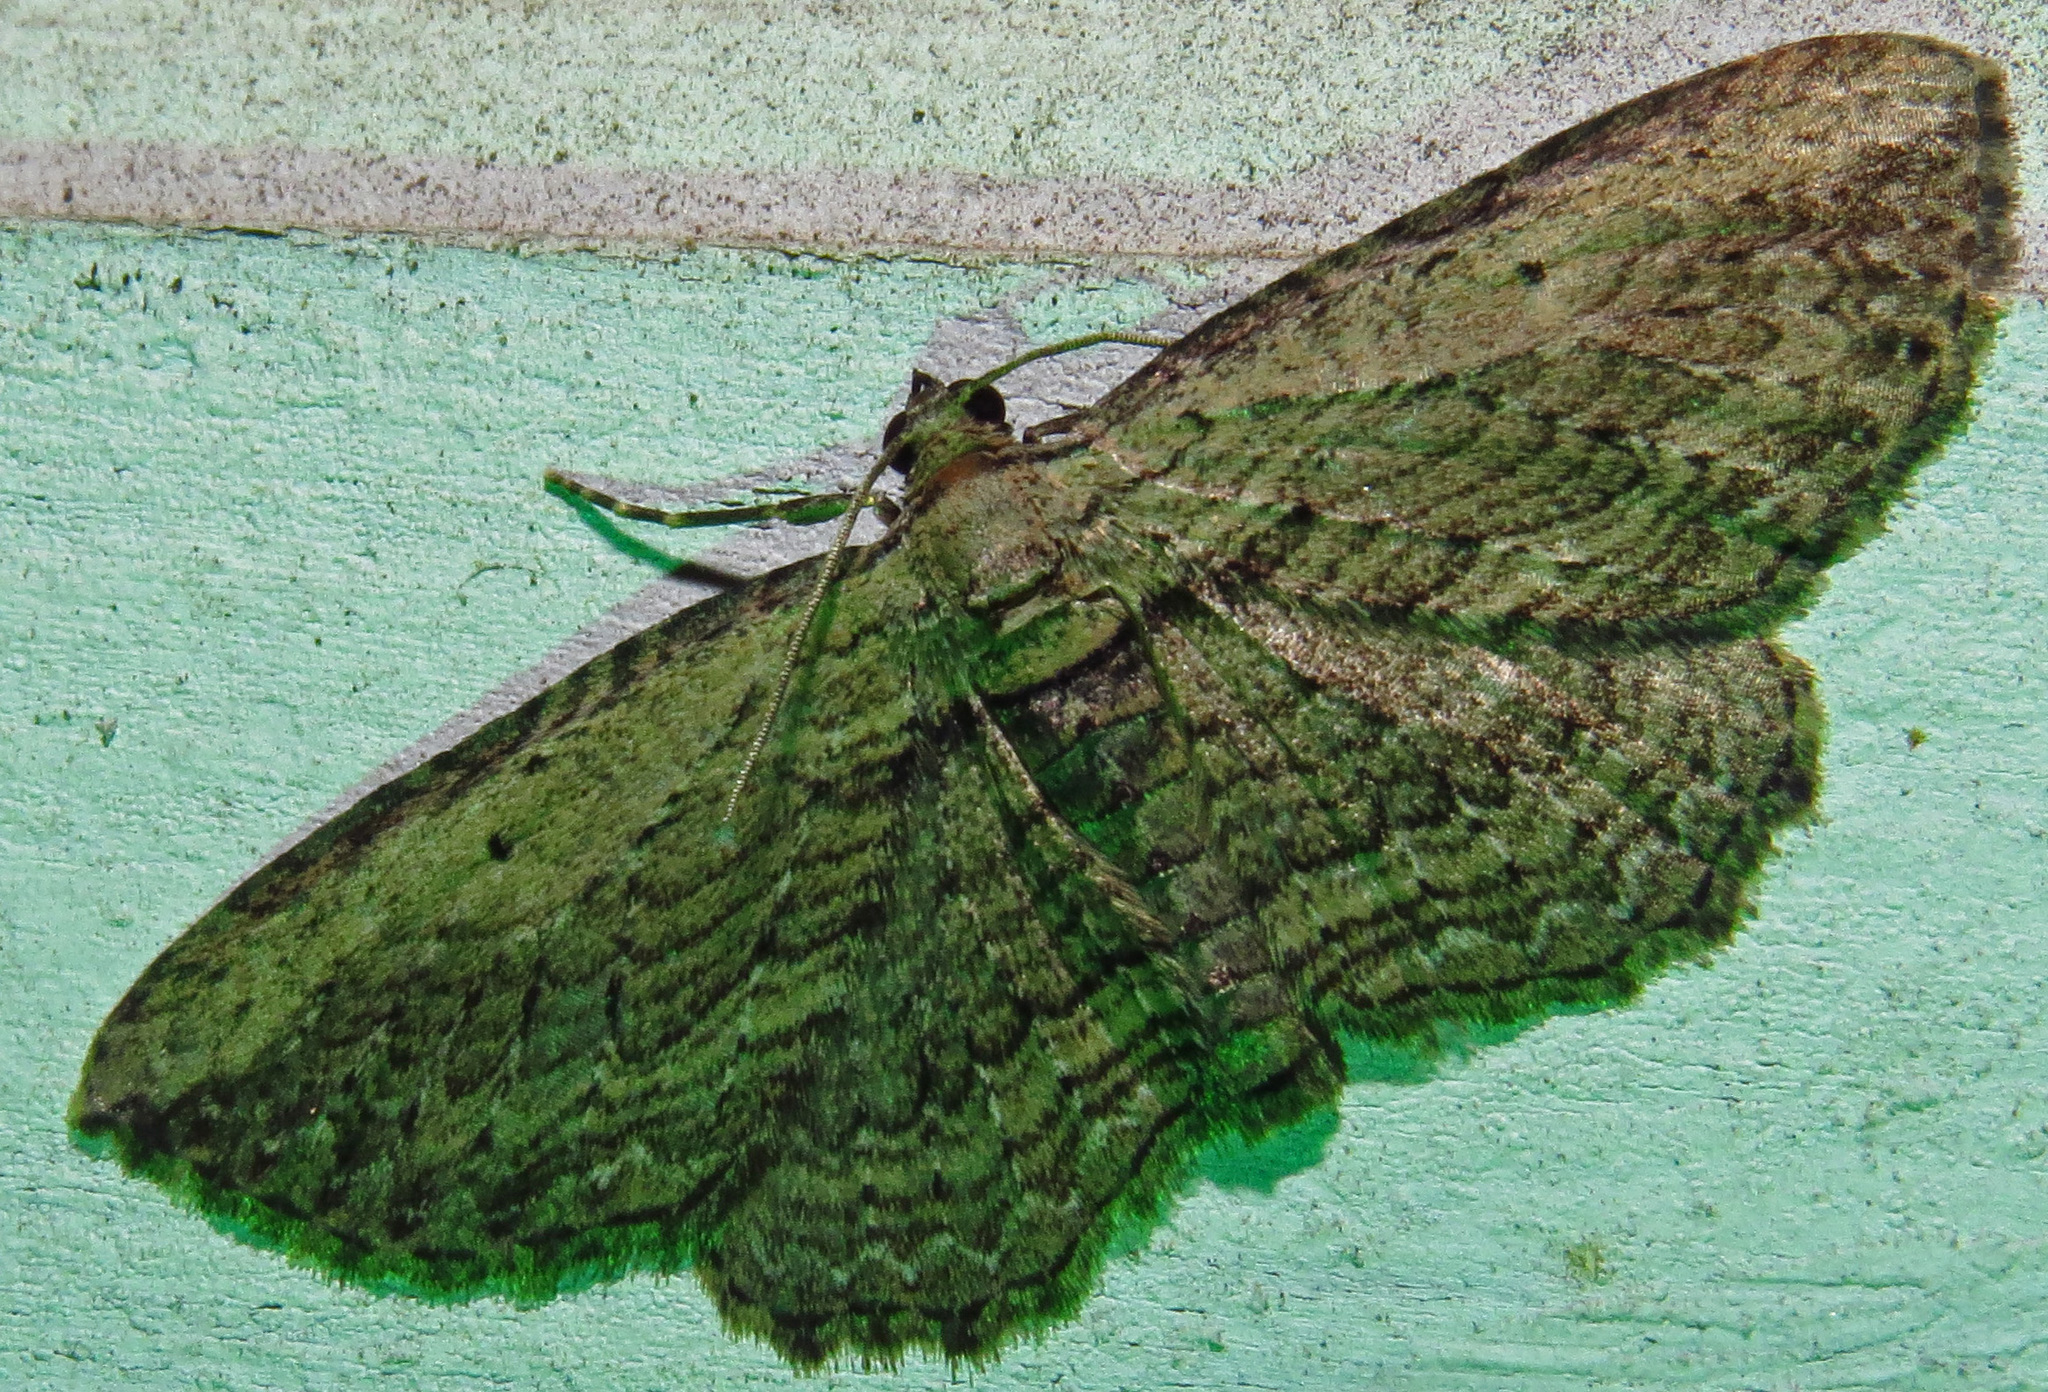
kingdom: Animalia
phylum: Arthropoda
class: Insecta
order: Lepidoptera
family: Geometridae
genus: Horisme
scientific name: Horisme intestinata
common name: Brown bark carpet
